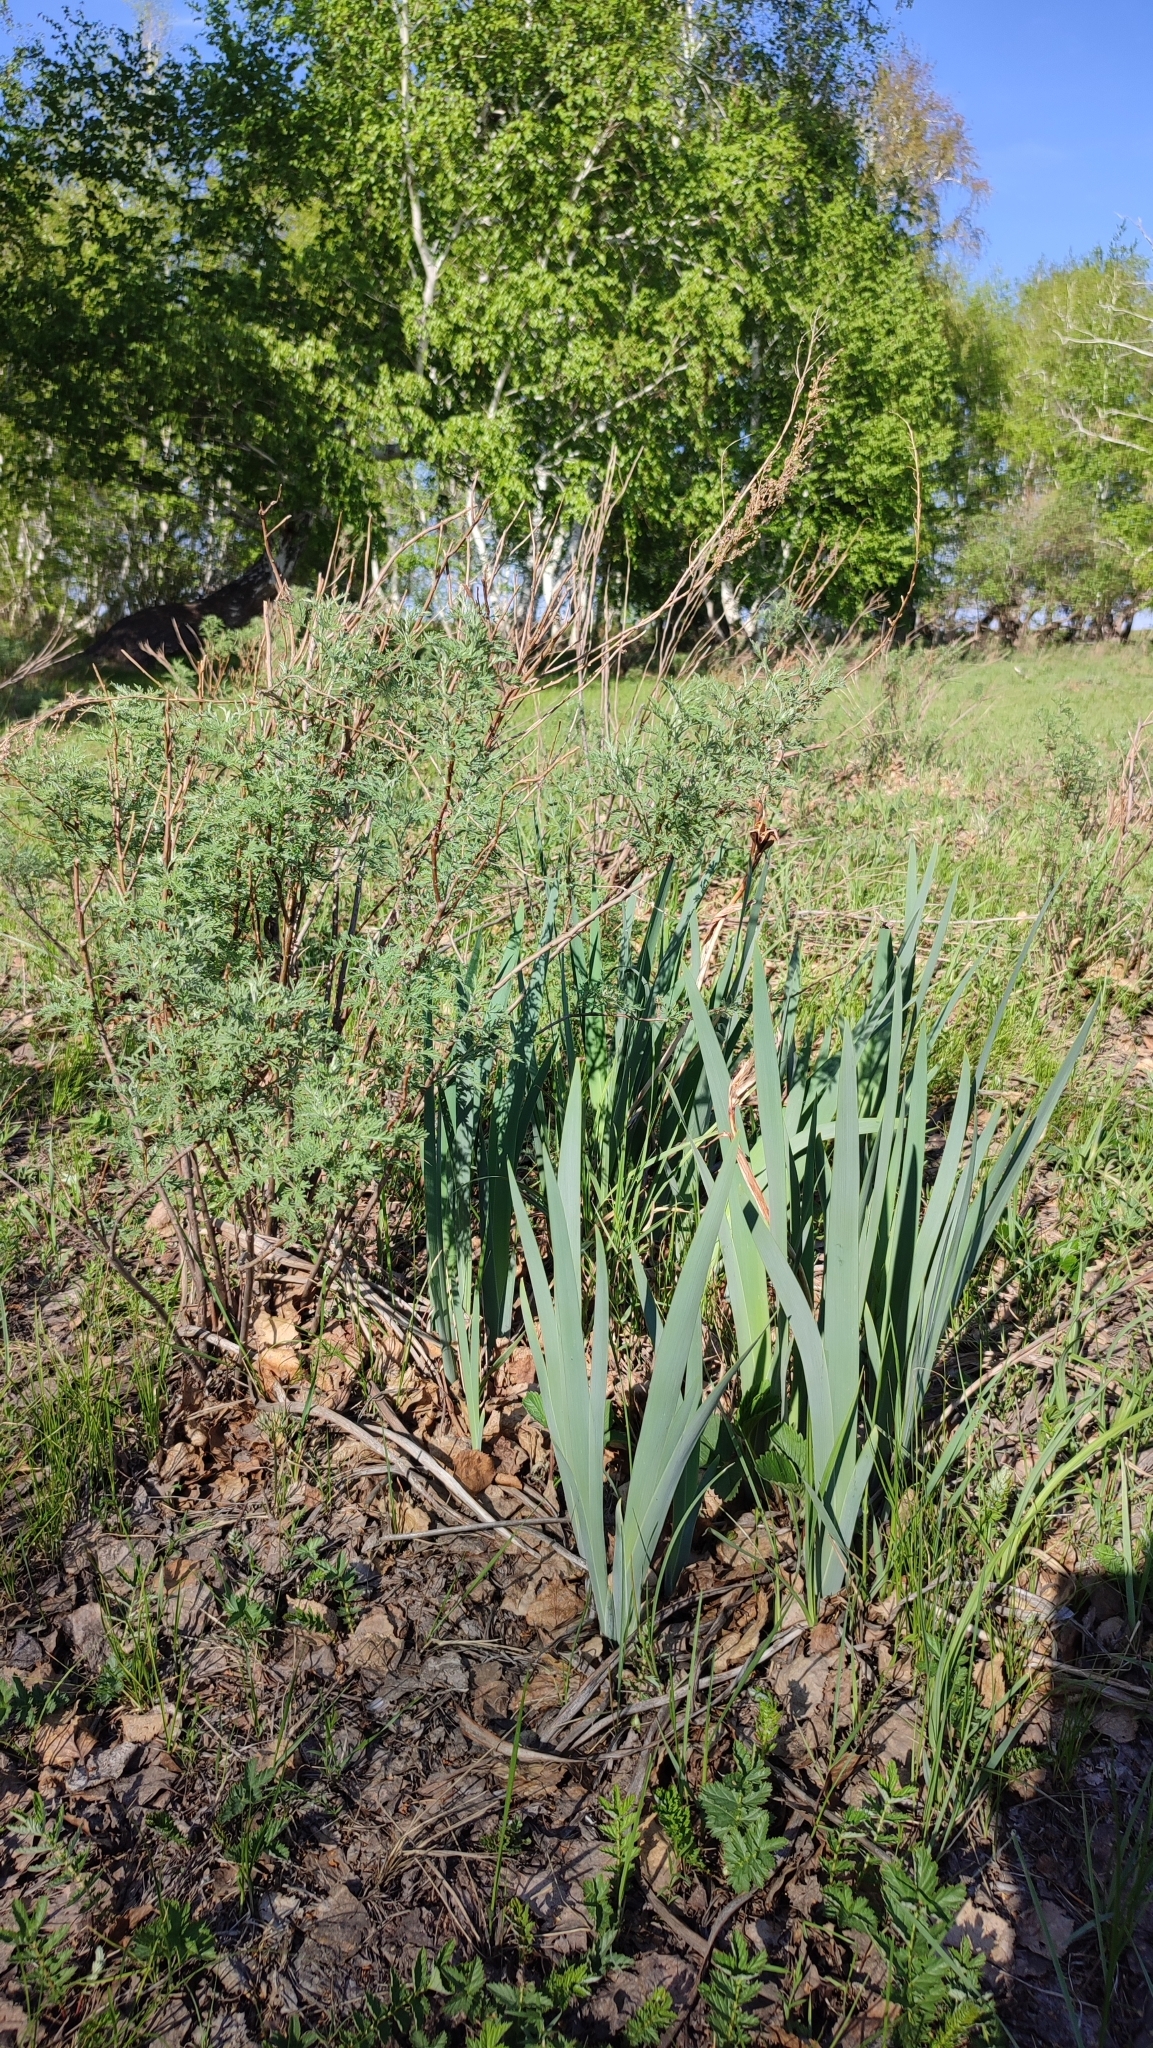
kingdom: Plantae
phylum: Tracheophyta
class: Liliopsida
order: Asparagales
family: Iridaceae
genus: Iris
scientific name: Iris halophila
